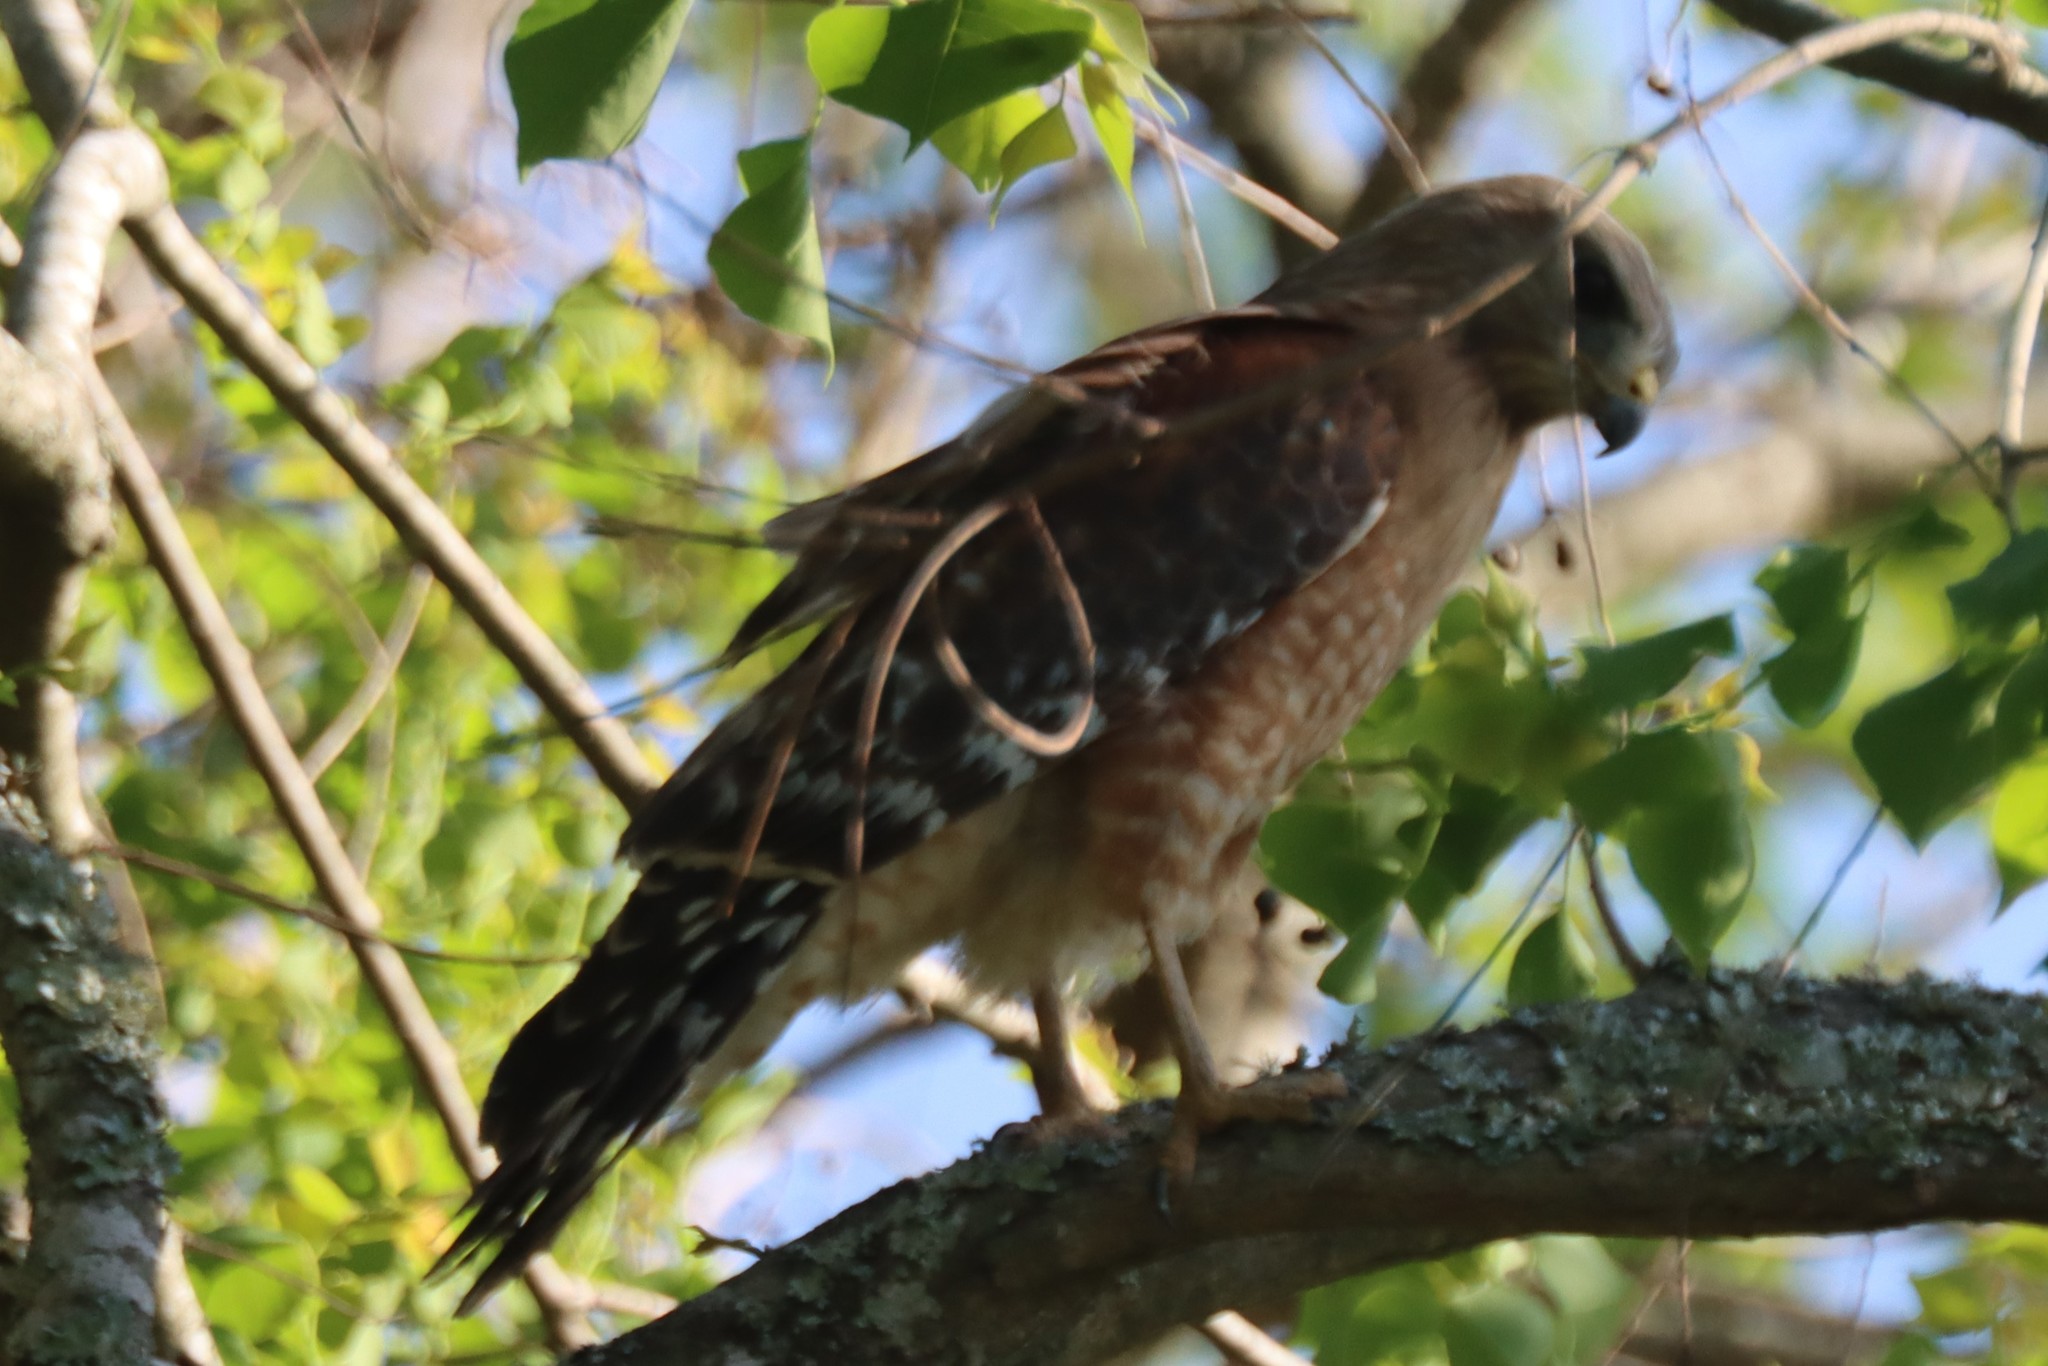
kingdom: Animalia
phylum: Chordata
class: Aves
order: Accipitriformes
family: Accipitridae
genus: Buteo
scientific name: Buteo lineatus
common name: Red-shouldered hawk
